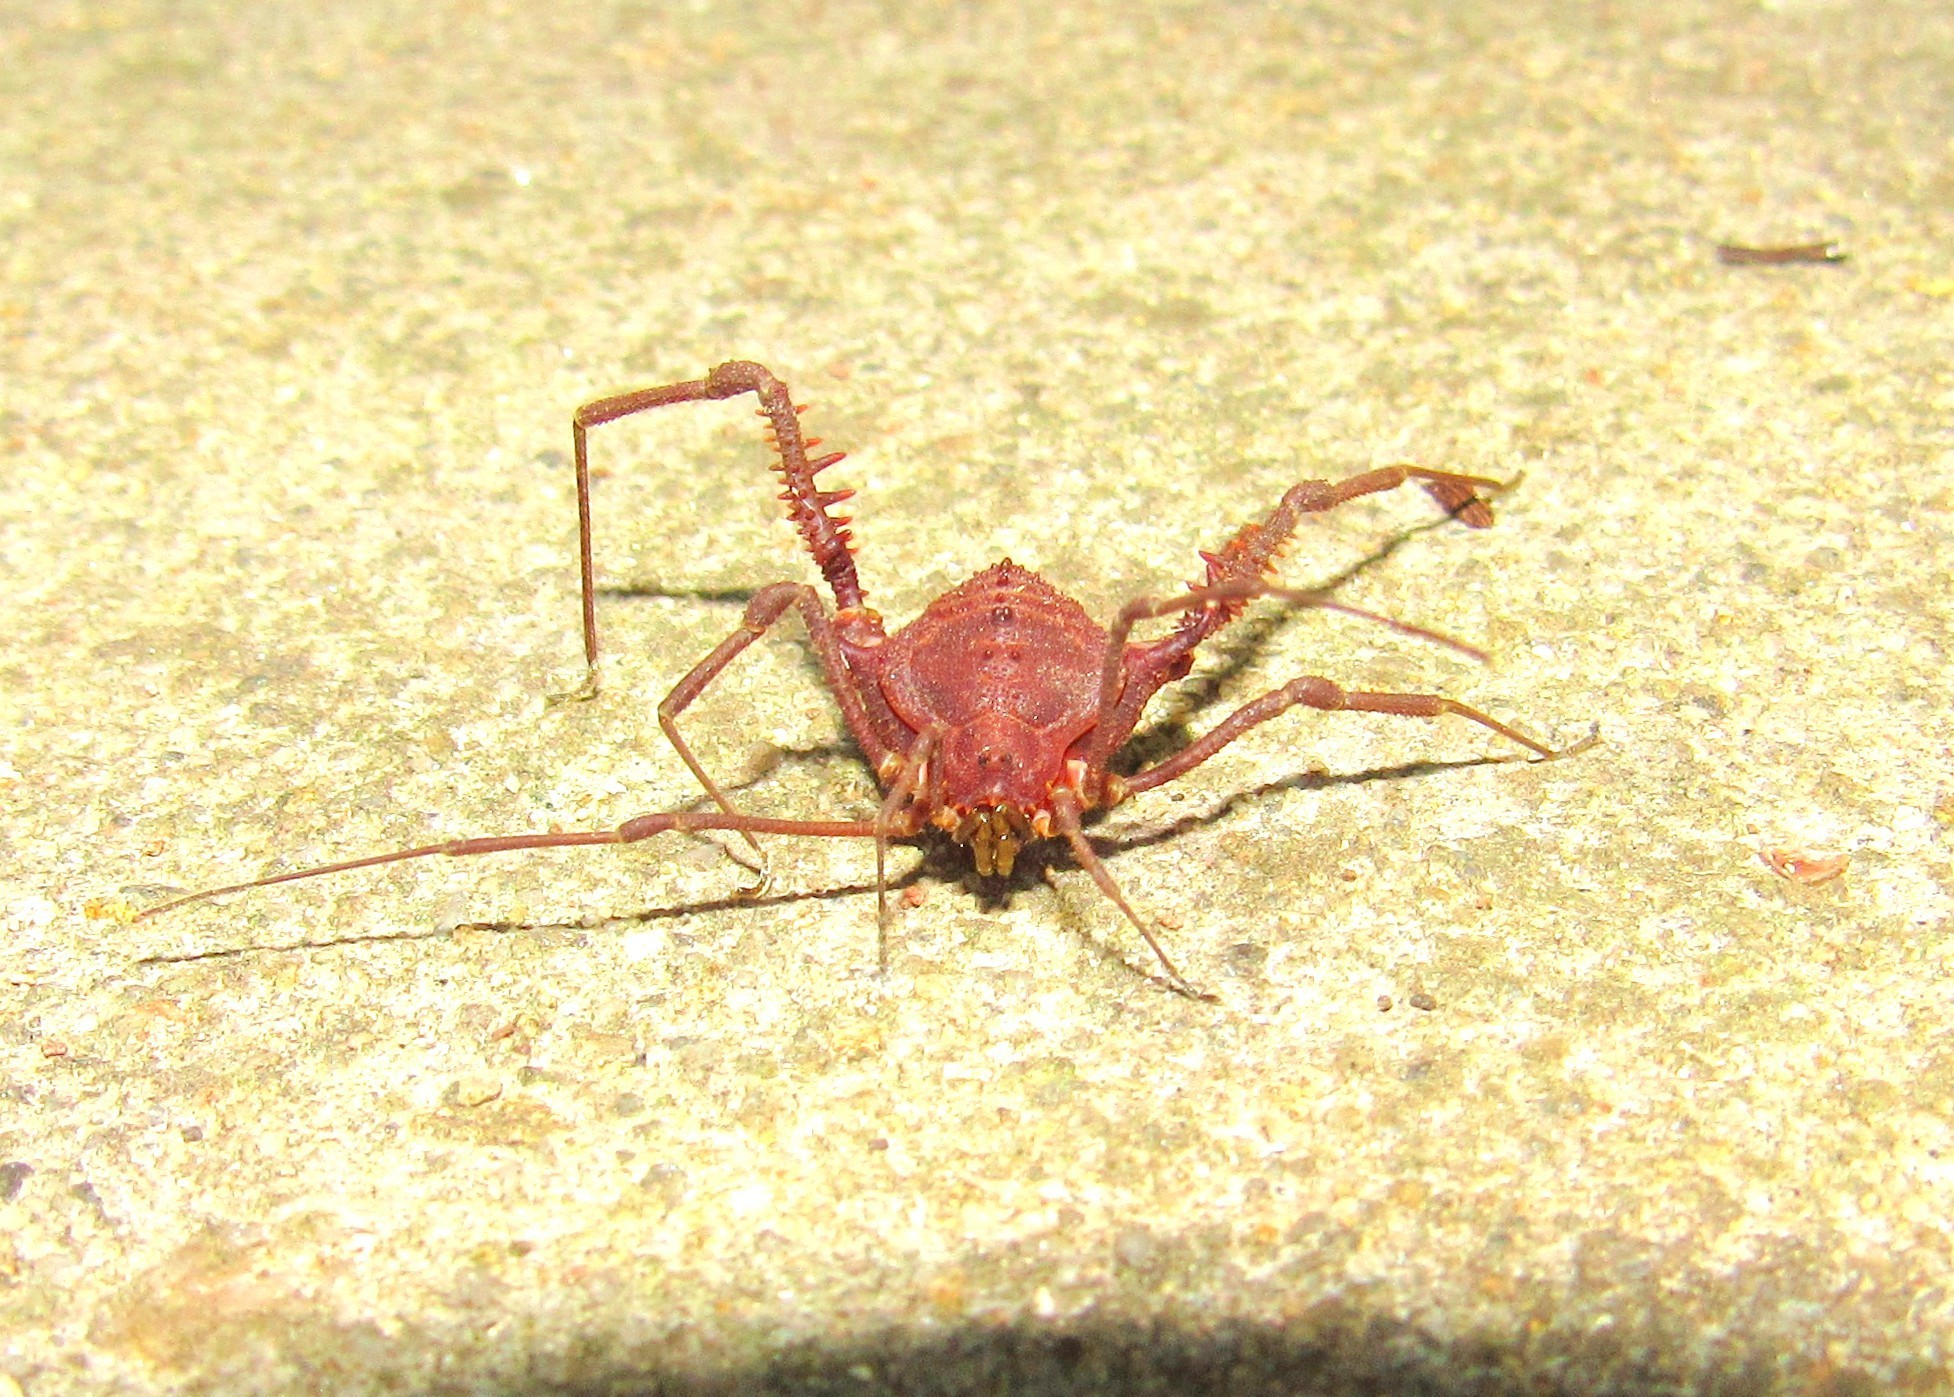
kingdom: Animalia
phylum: Arthropoda
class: Arachnida
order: Opiliones
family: Gonyleptidae
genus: Acrogonyleptes
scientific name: Acrogonyleptes pectinifemur
